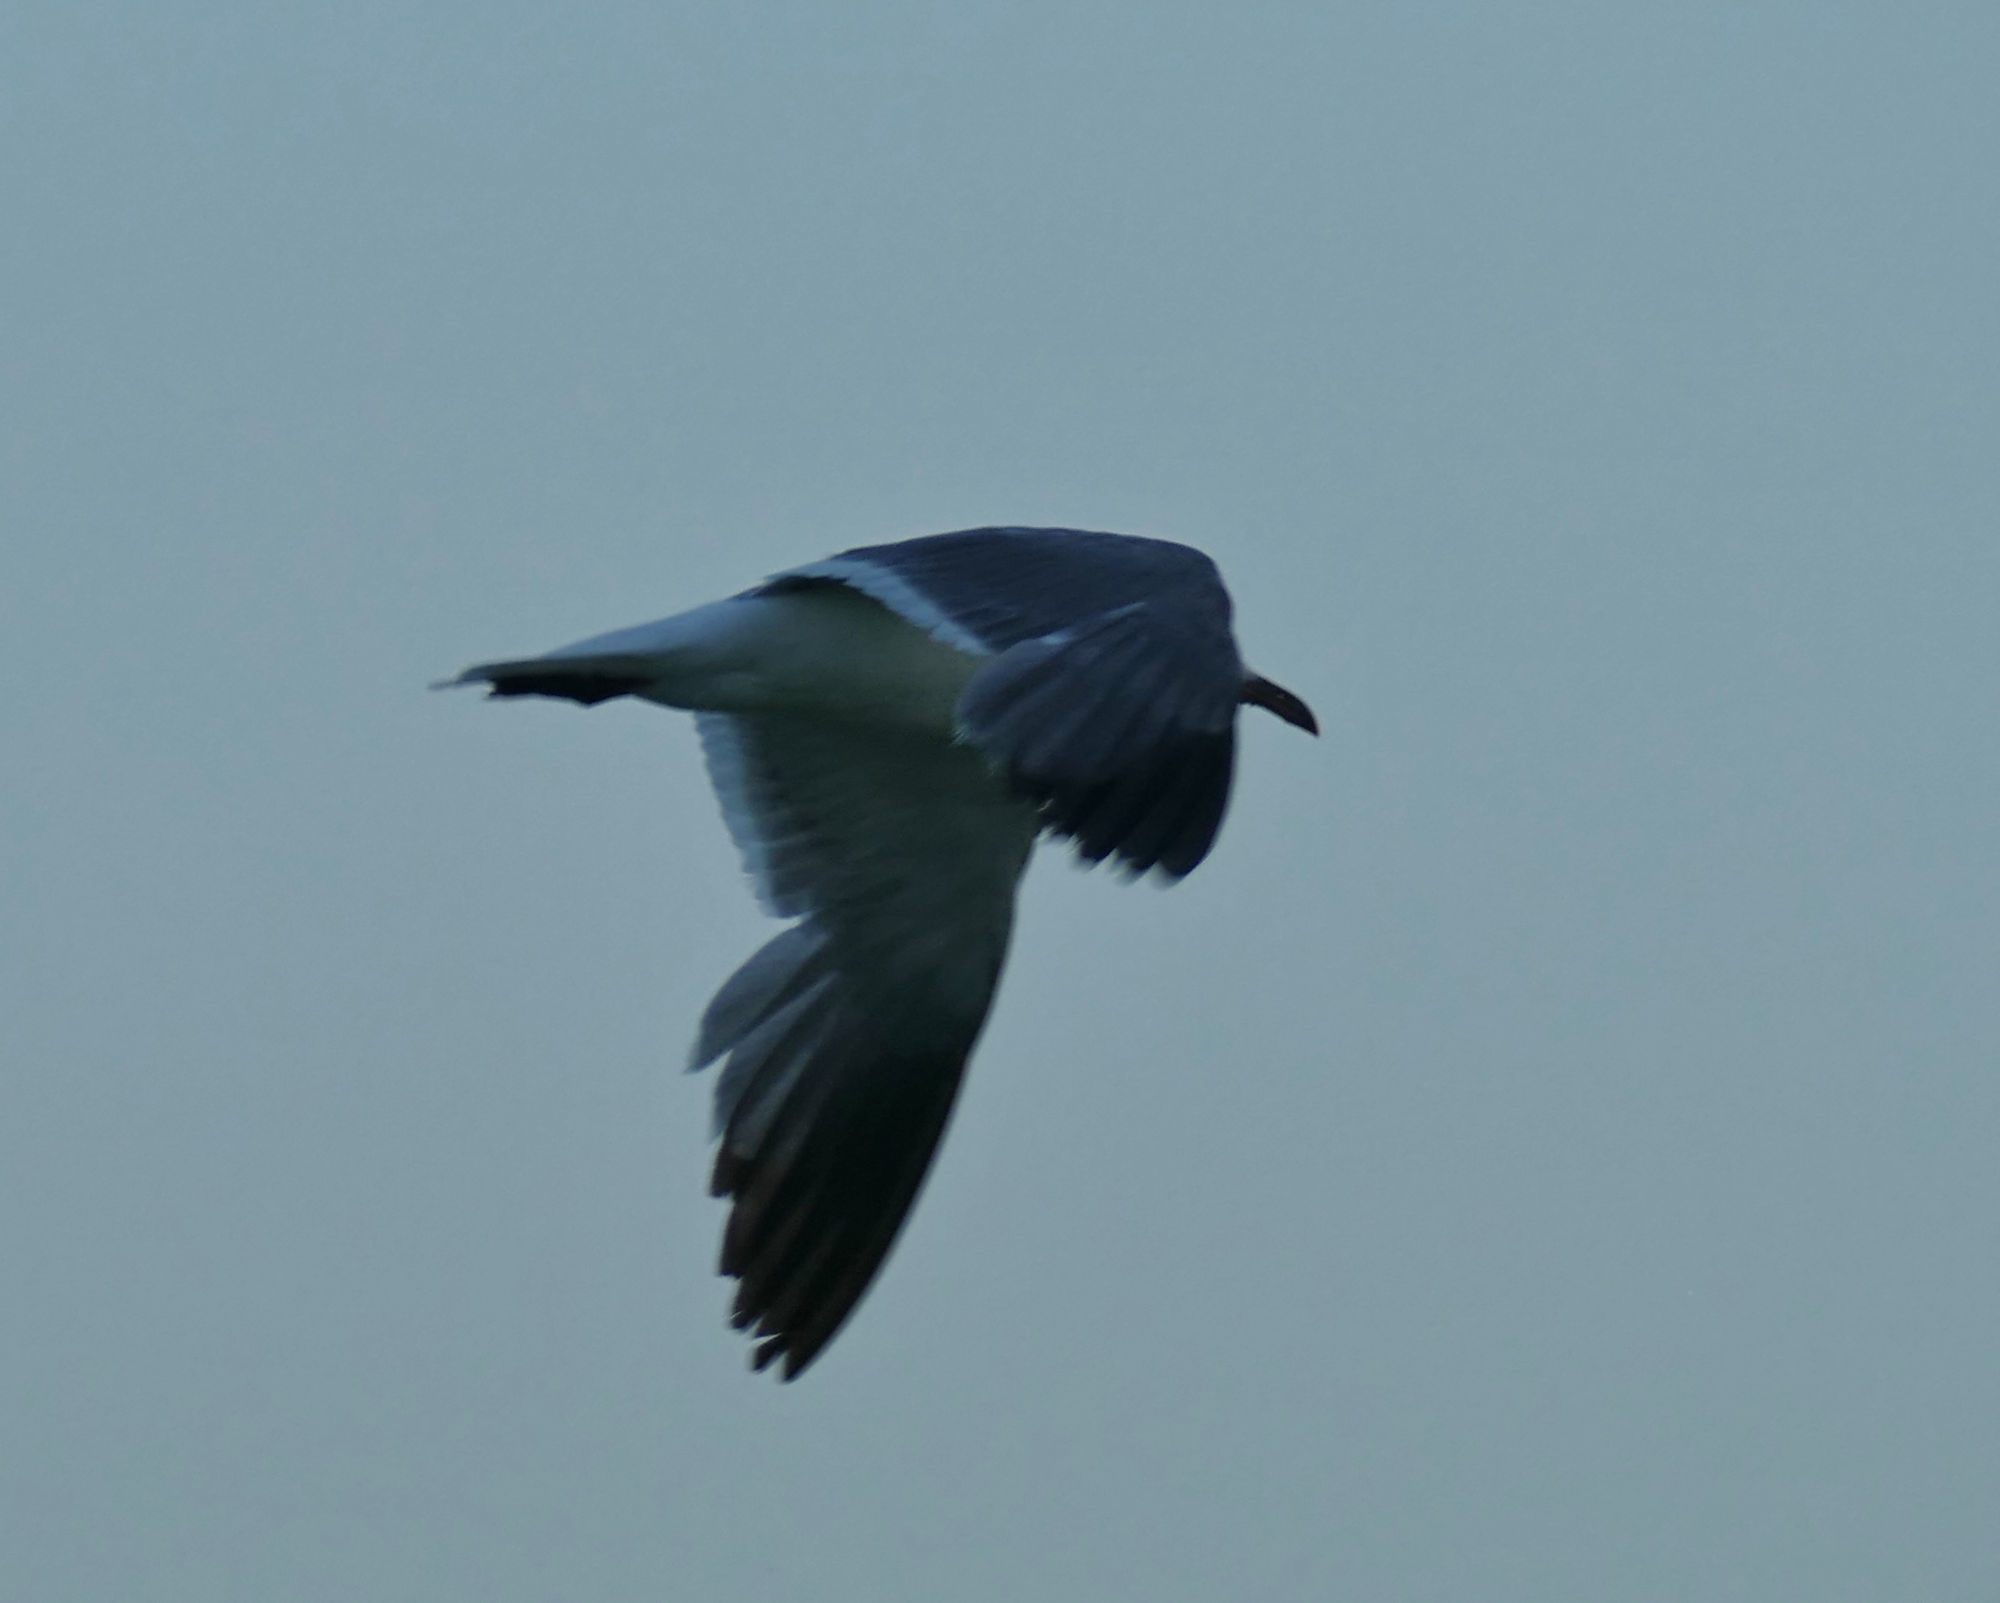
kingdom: Animalia
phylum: Chordata
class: Aves
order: Charadriiformes
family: Laridae
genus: Leucophaeus
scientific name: Leucophaeus atricilla
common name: Laughing gull
